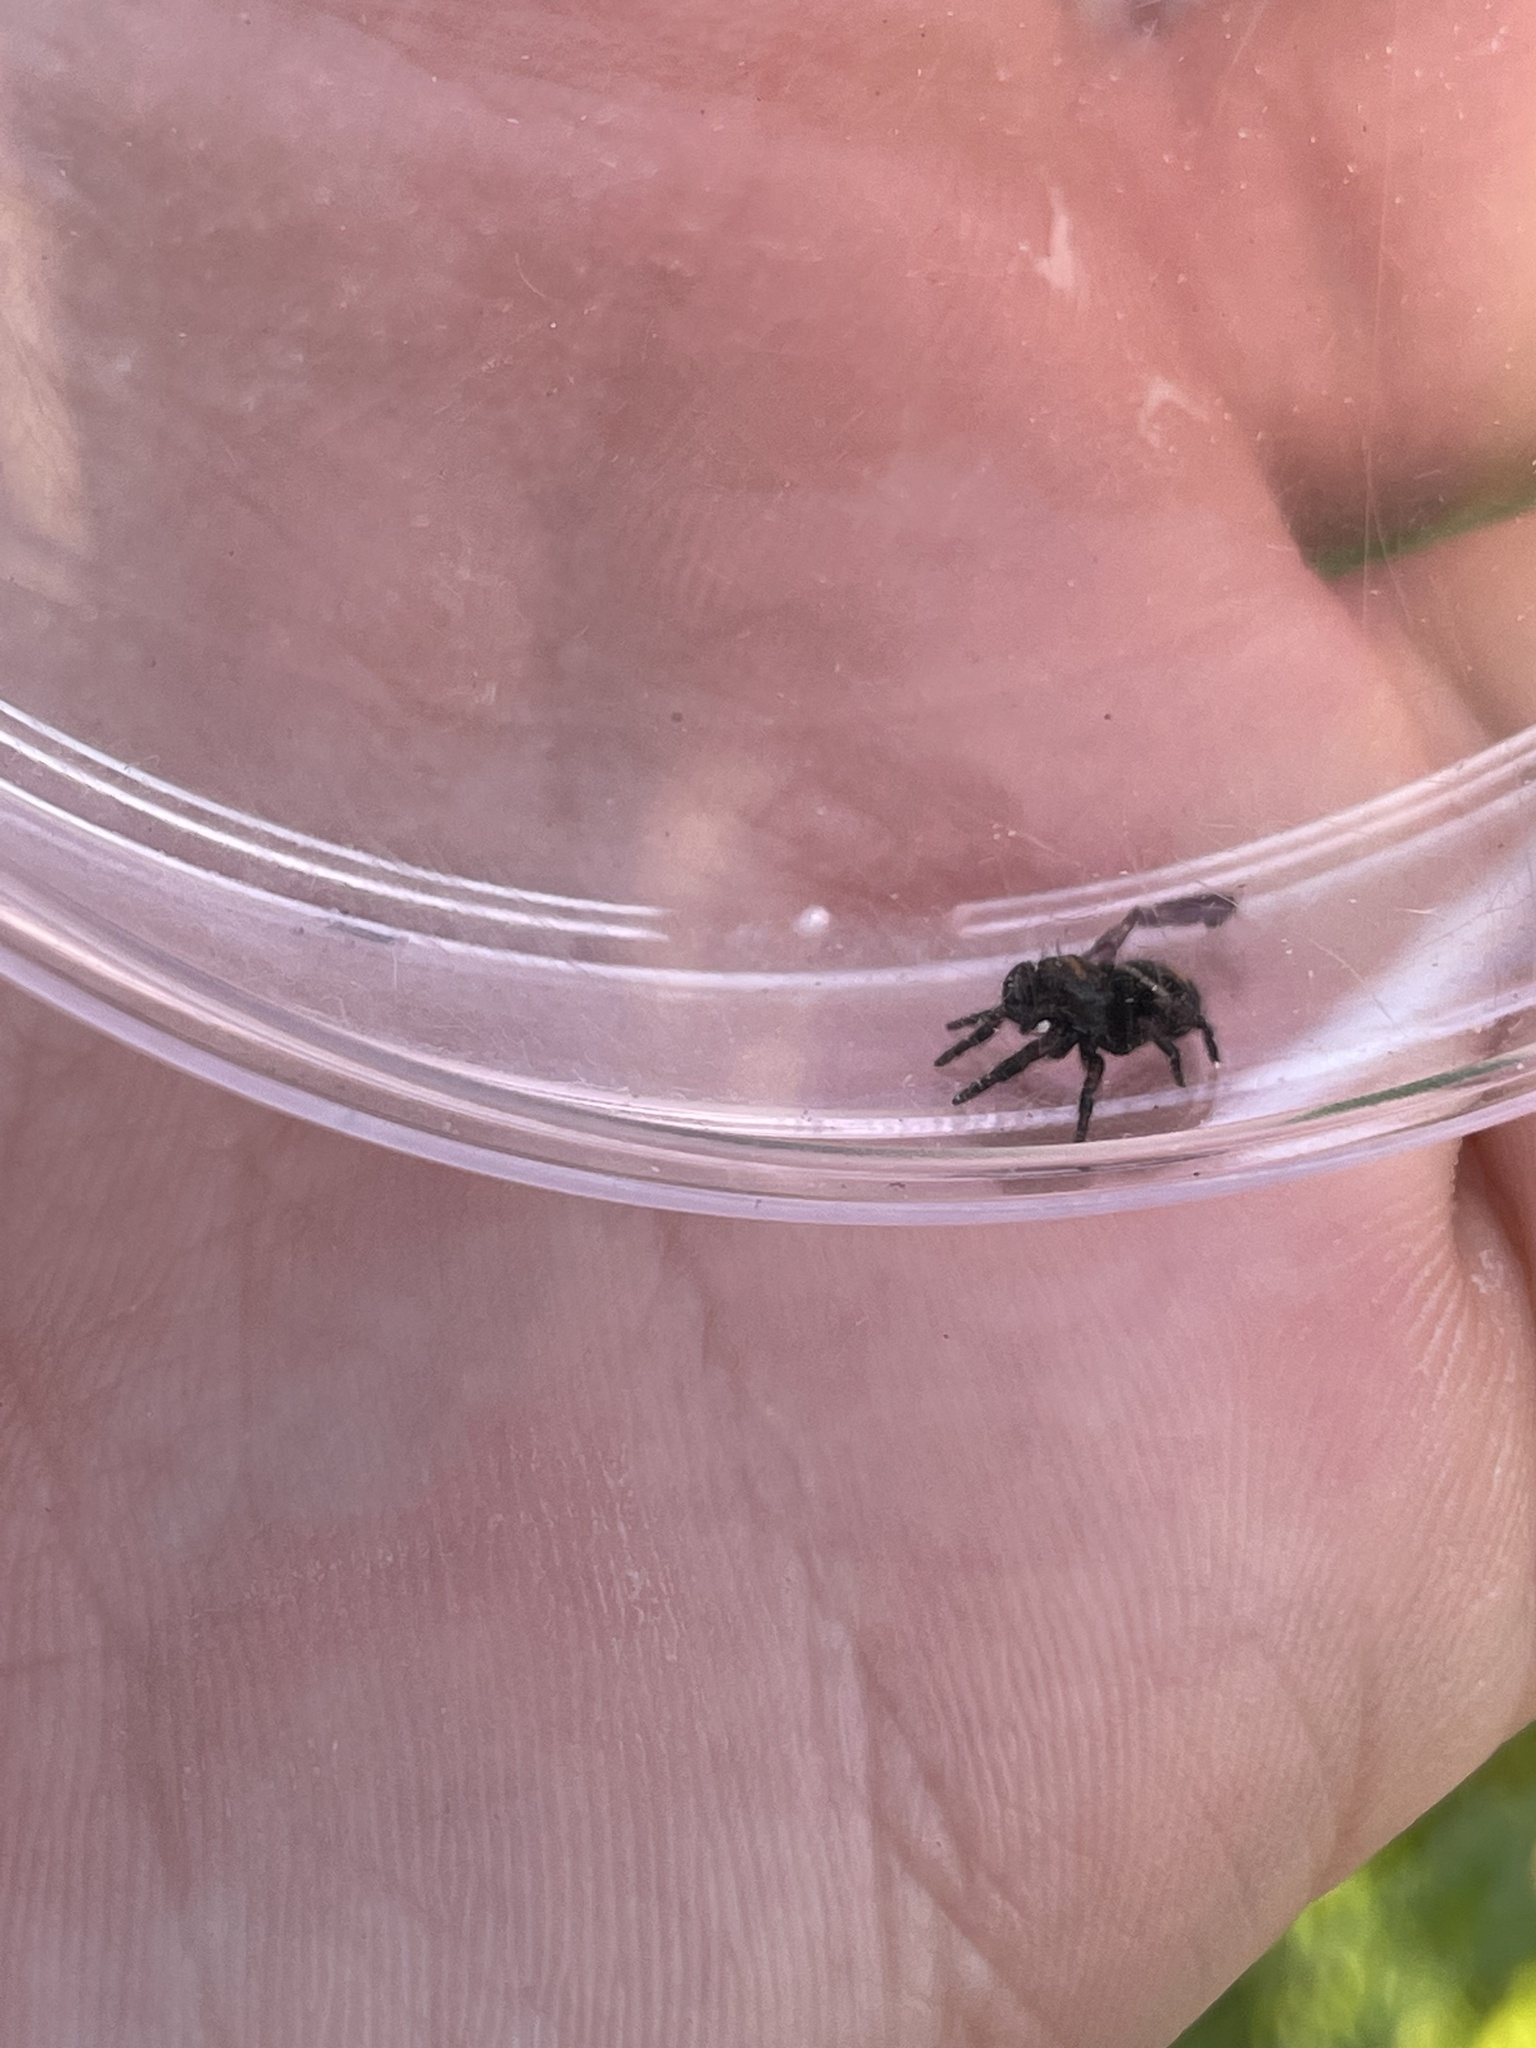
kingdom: Animalia
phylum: Arthropoda
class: Arachnida
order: Araneae
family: Salticidae
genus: Phidippus
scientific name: Phidippus audax
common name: Bold jumper
